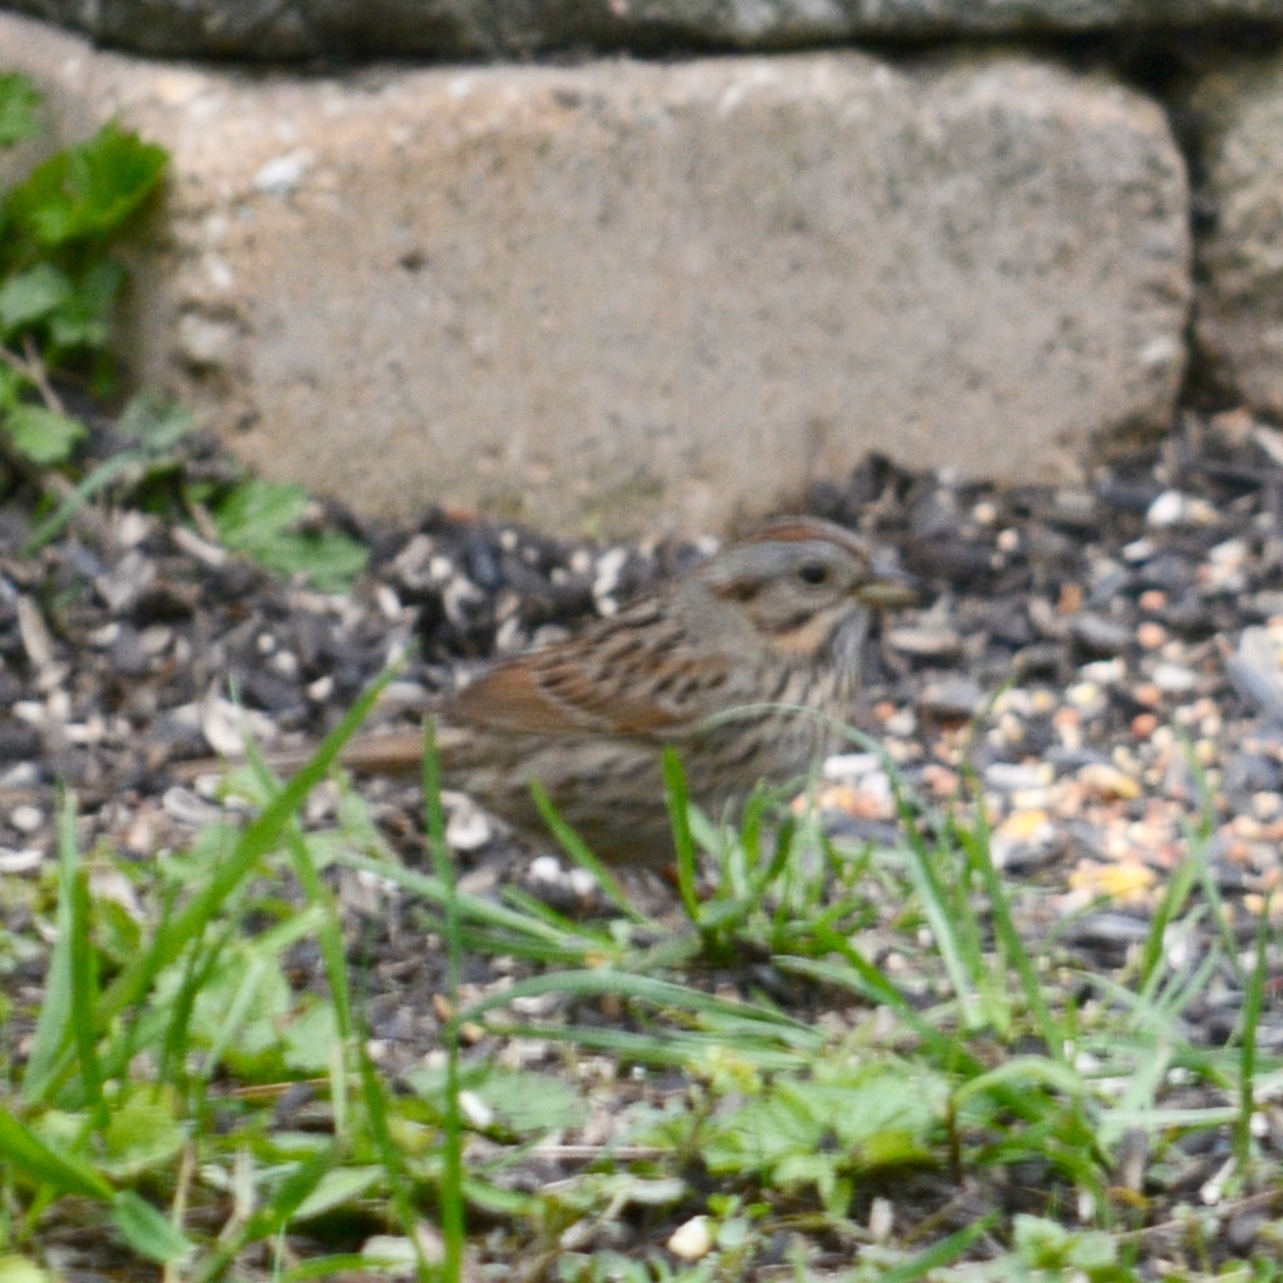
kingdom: Animalia
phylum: Chordata
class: Aves
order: Passeriformes
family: Passerellidae
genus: Melospiza
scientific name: Melospiza lincolnii
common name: Lincoln's sparrow
